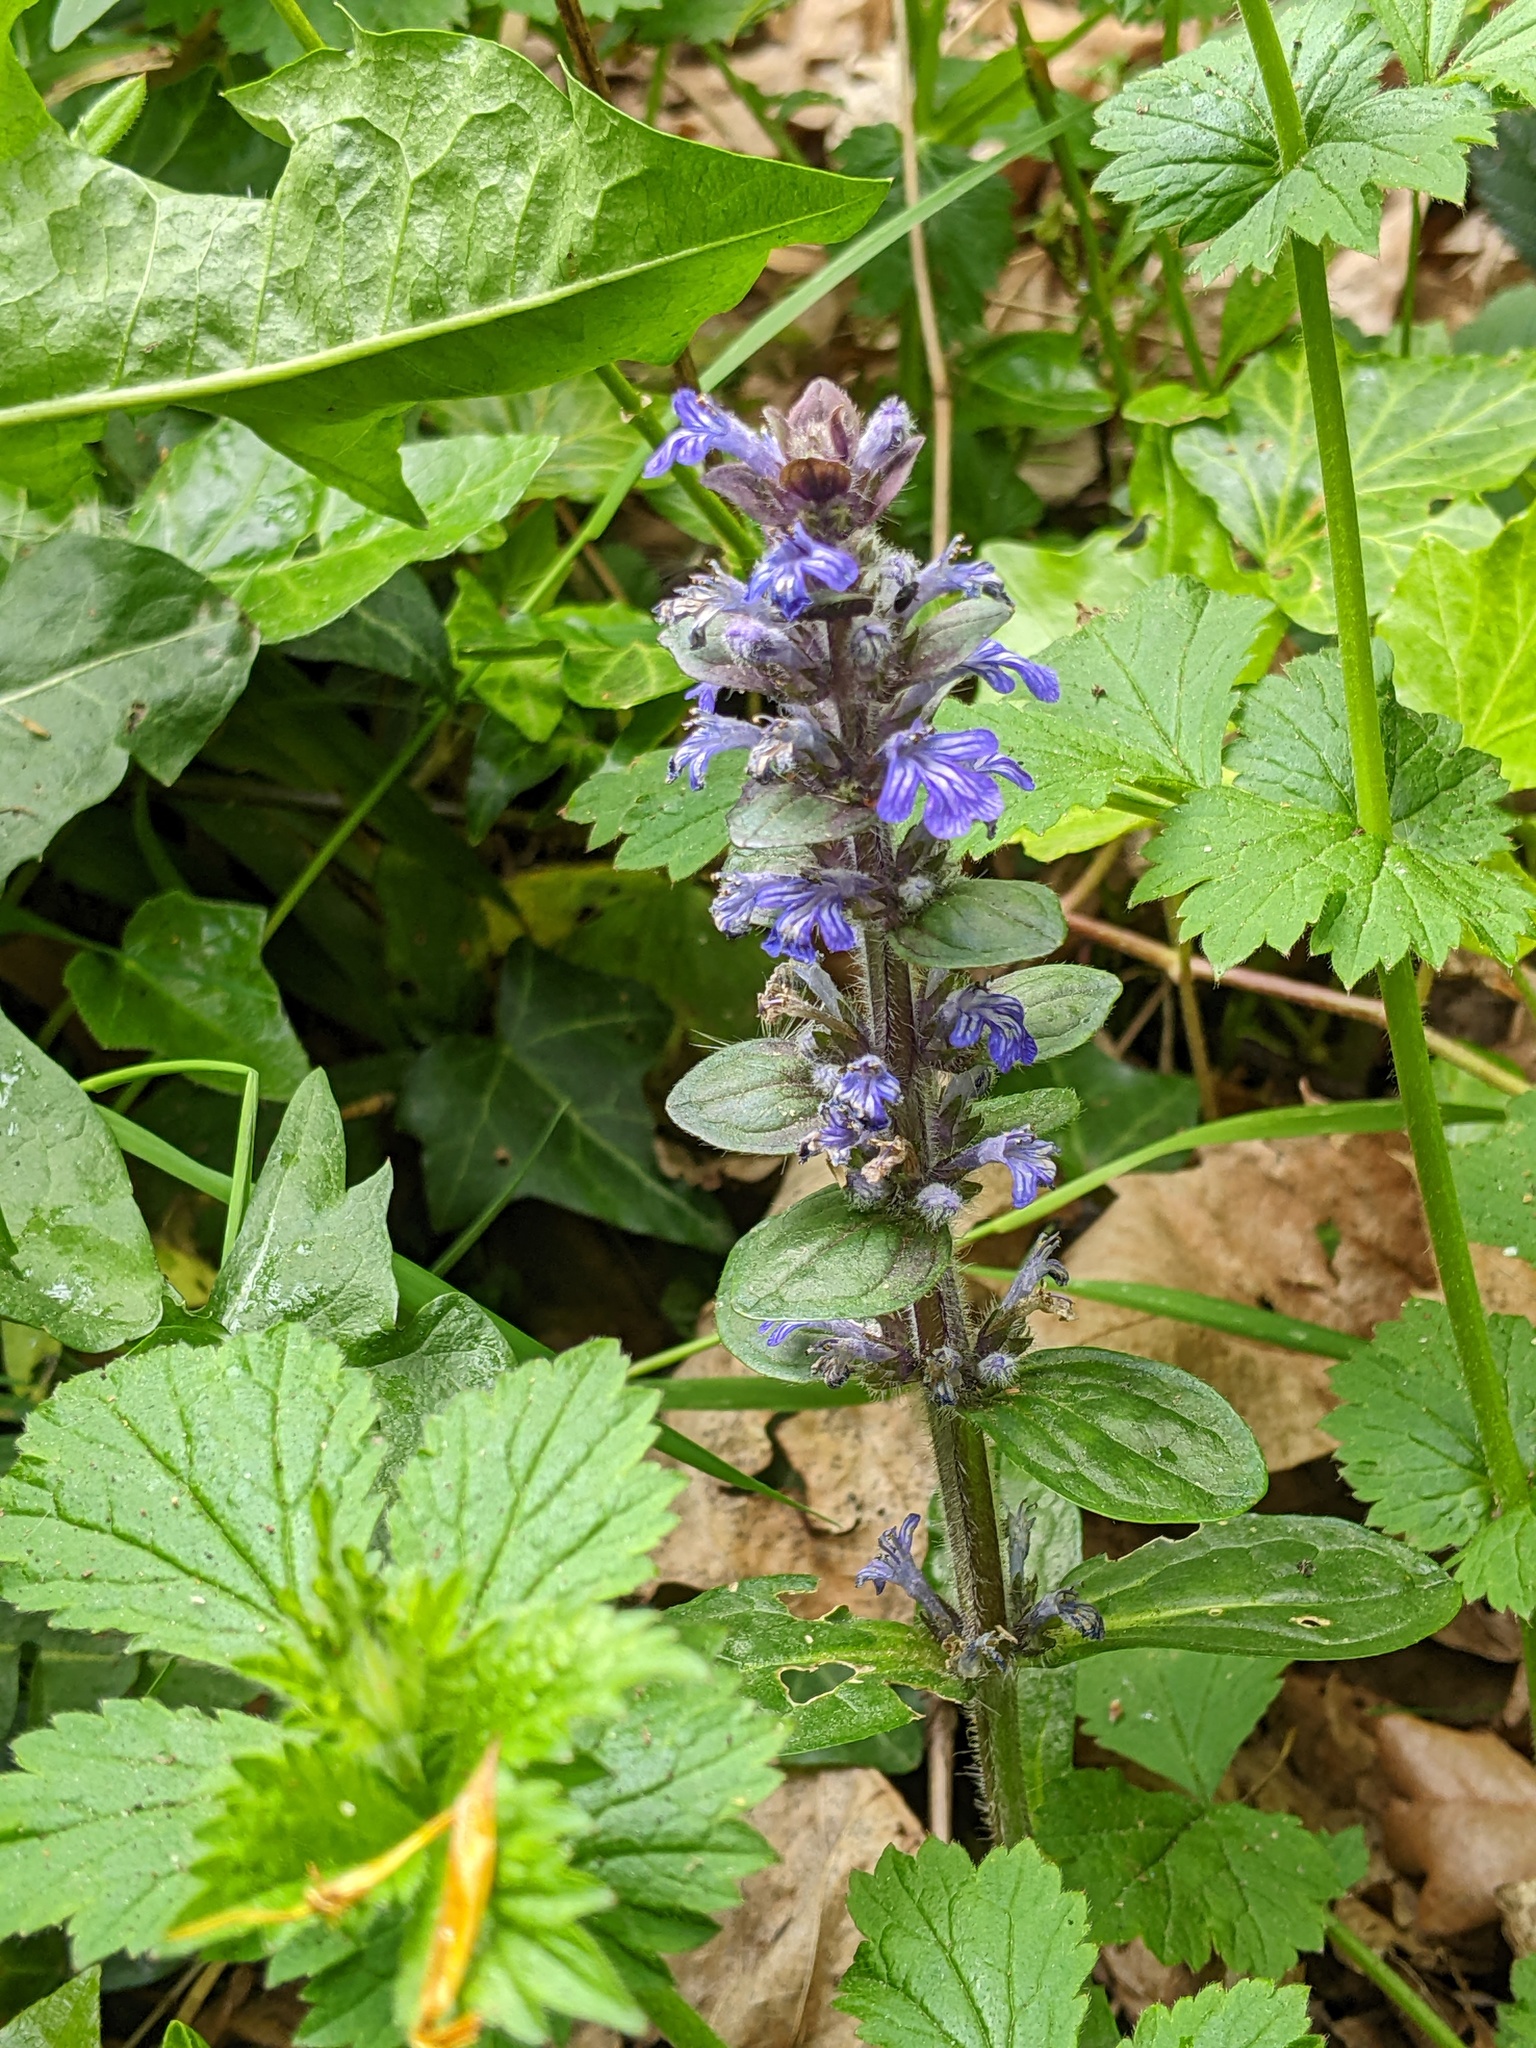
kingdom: Plantae
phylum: Tracheophyta
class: Magnoliopsida
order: Lamiales
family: Lamiaceae
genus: Ajuga
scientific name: Ajuga reptans
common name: Bugle
